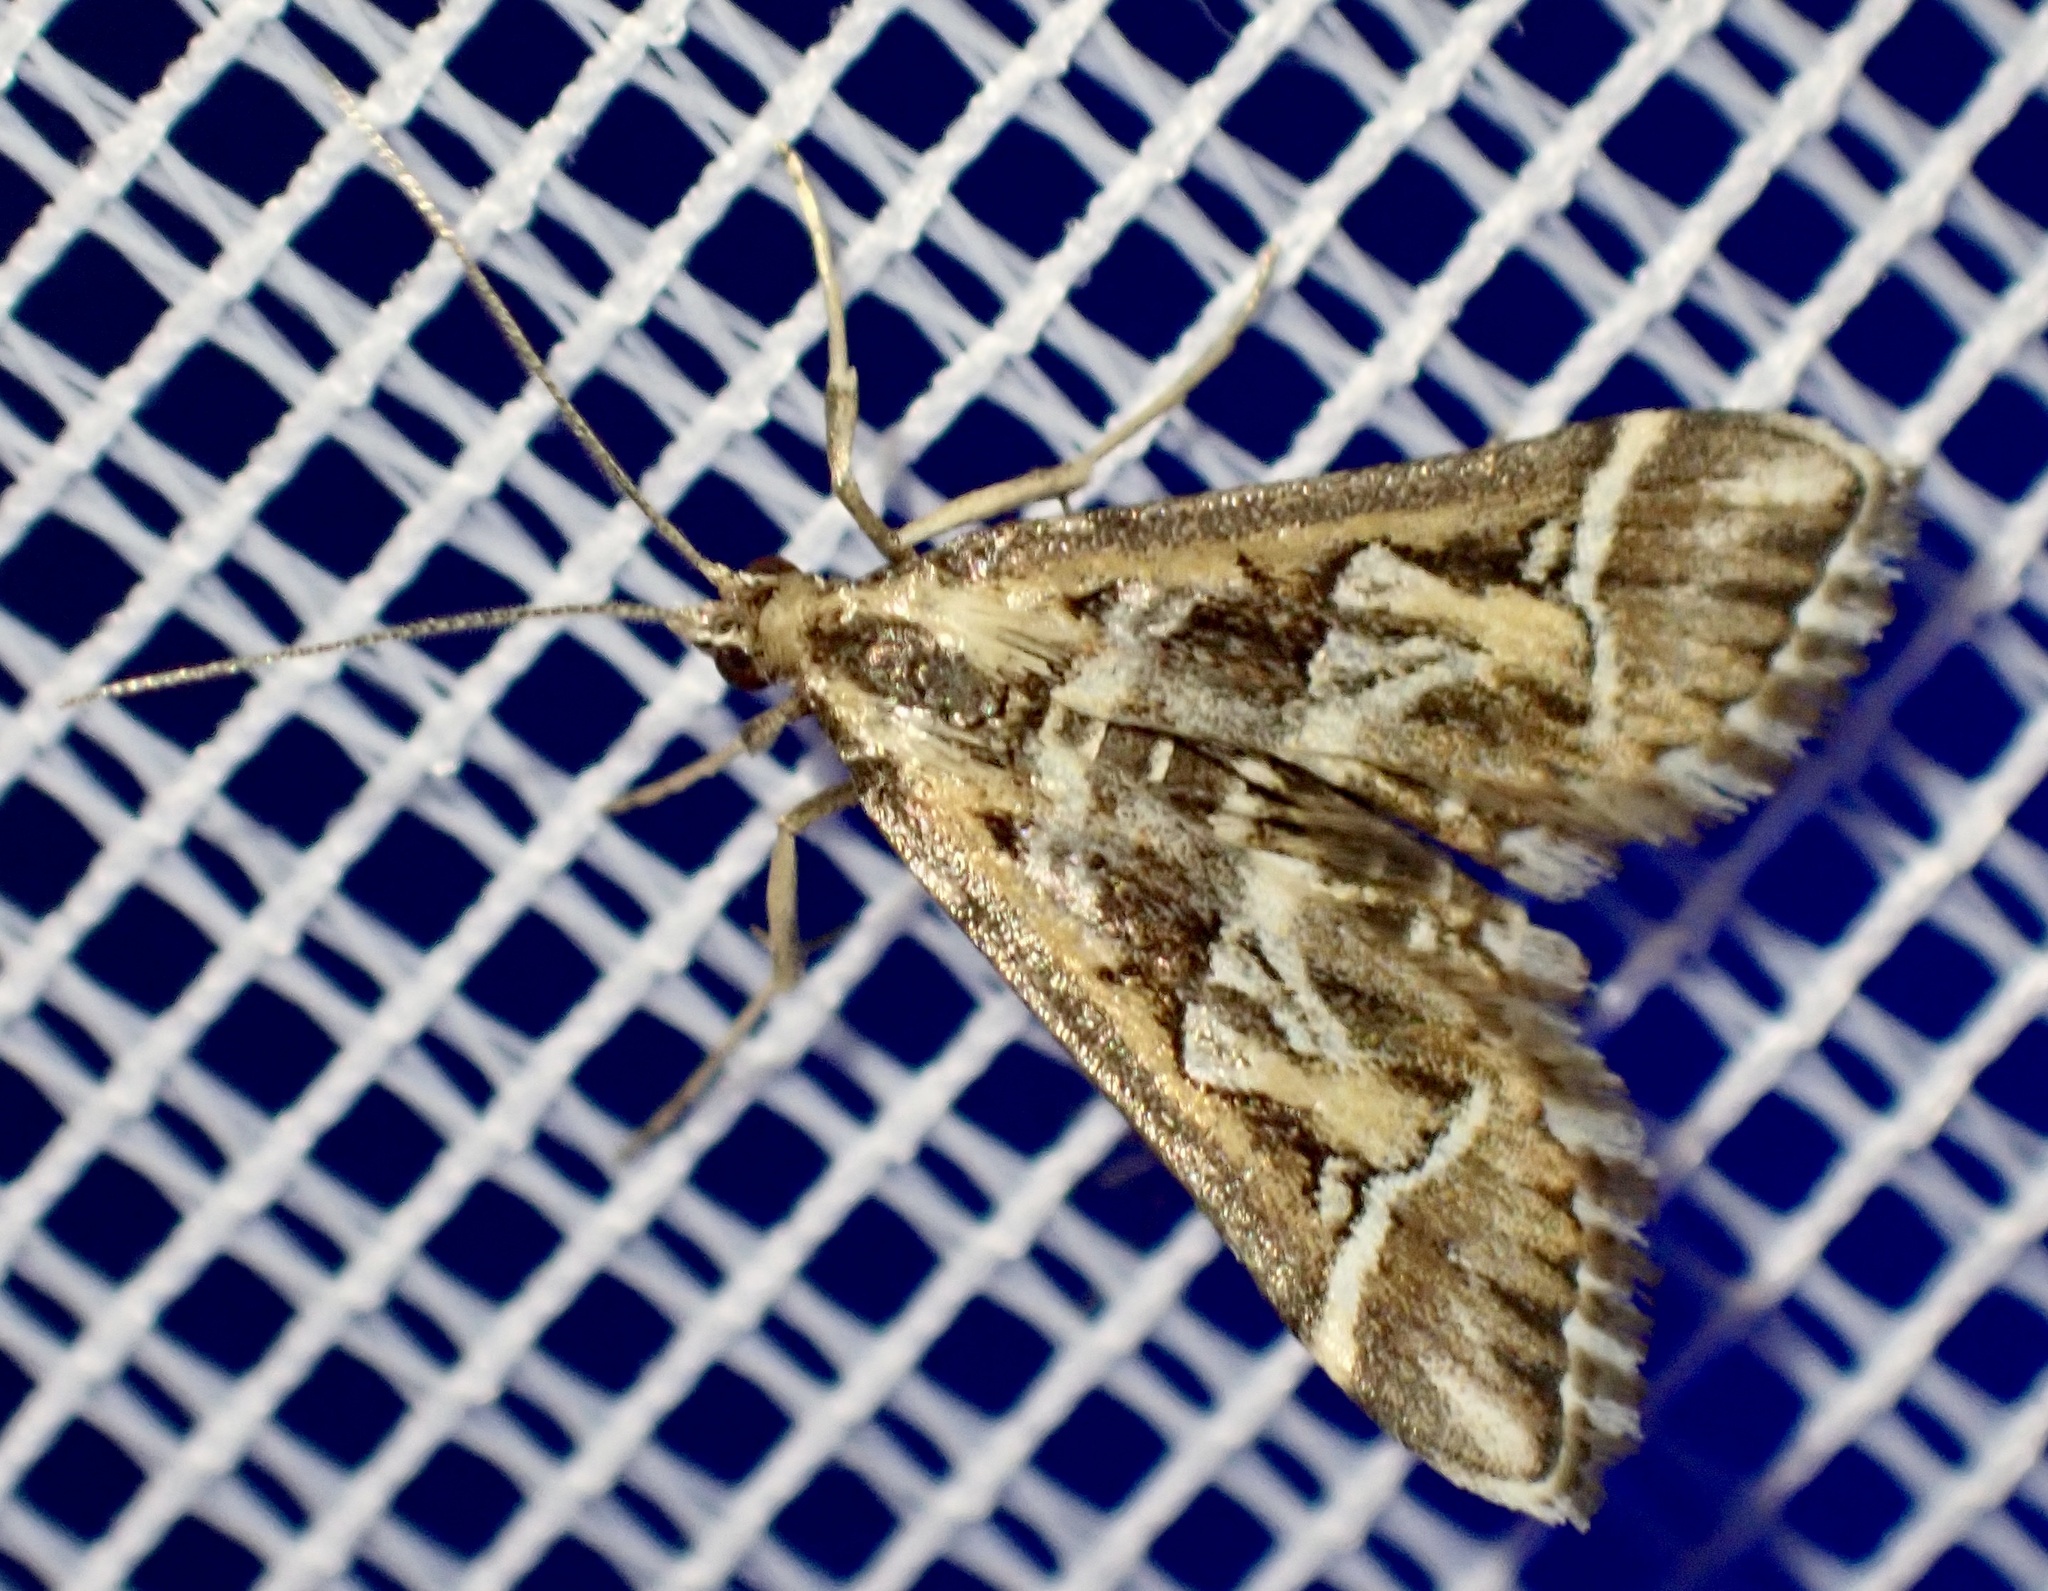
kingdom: Animalia
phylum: Arthropoda
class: Insecta
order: Lepidoptera
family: Crambidae
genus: Diasemia
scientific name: Diasemia reticularis
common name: Lettered china-mark
